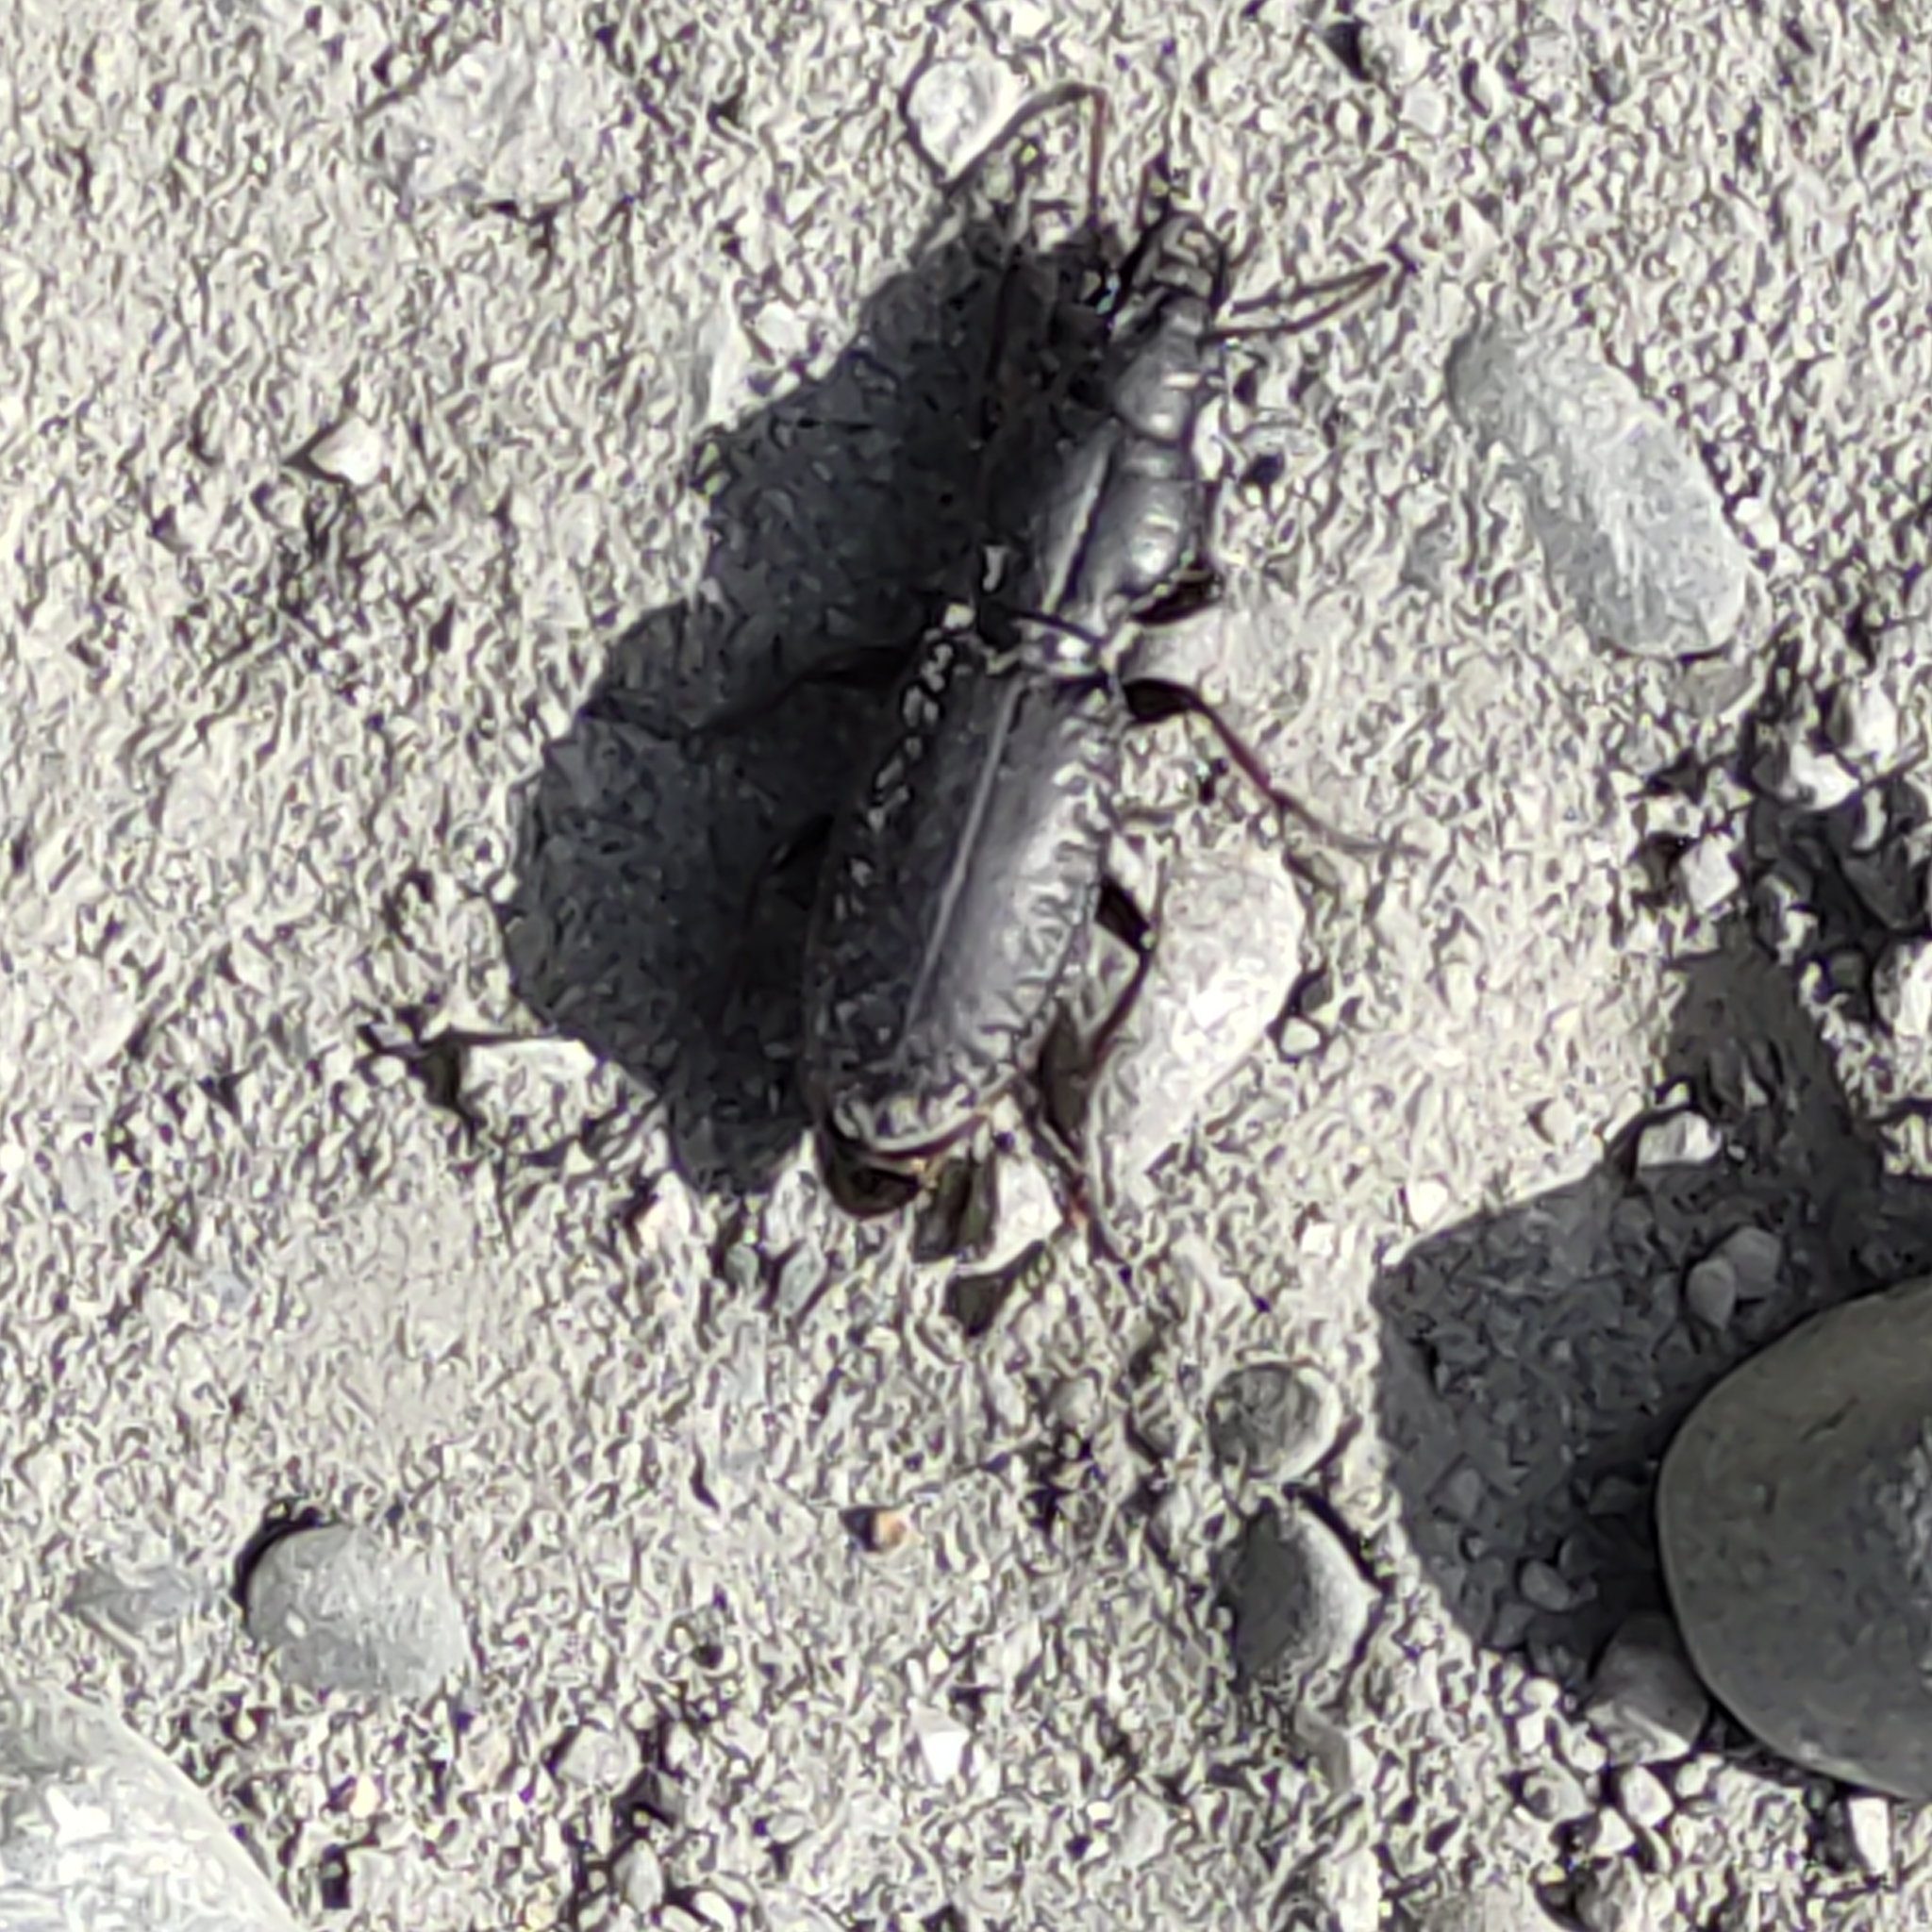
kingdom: Animalia
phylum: Arthropoda
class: Insecta
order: Coleoptera
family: Carabidae
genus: Mecodema
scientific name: Mecodema ducale
